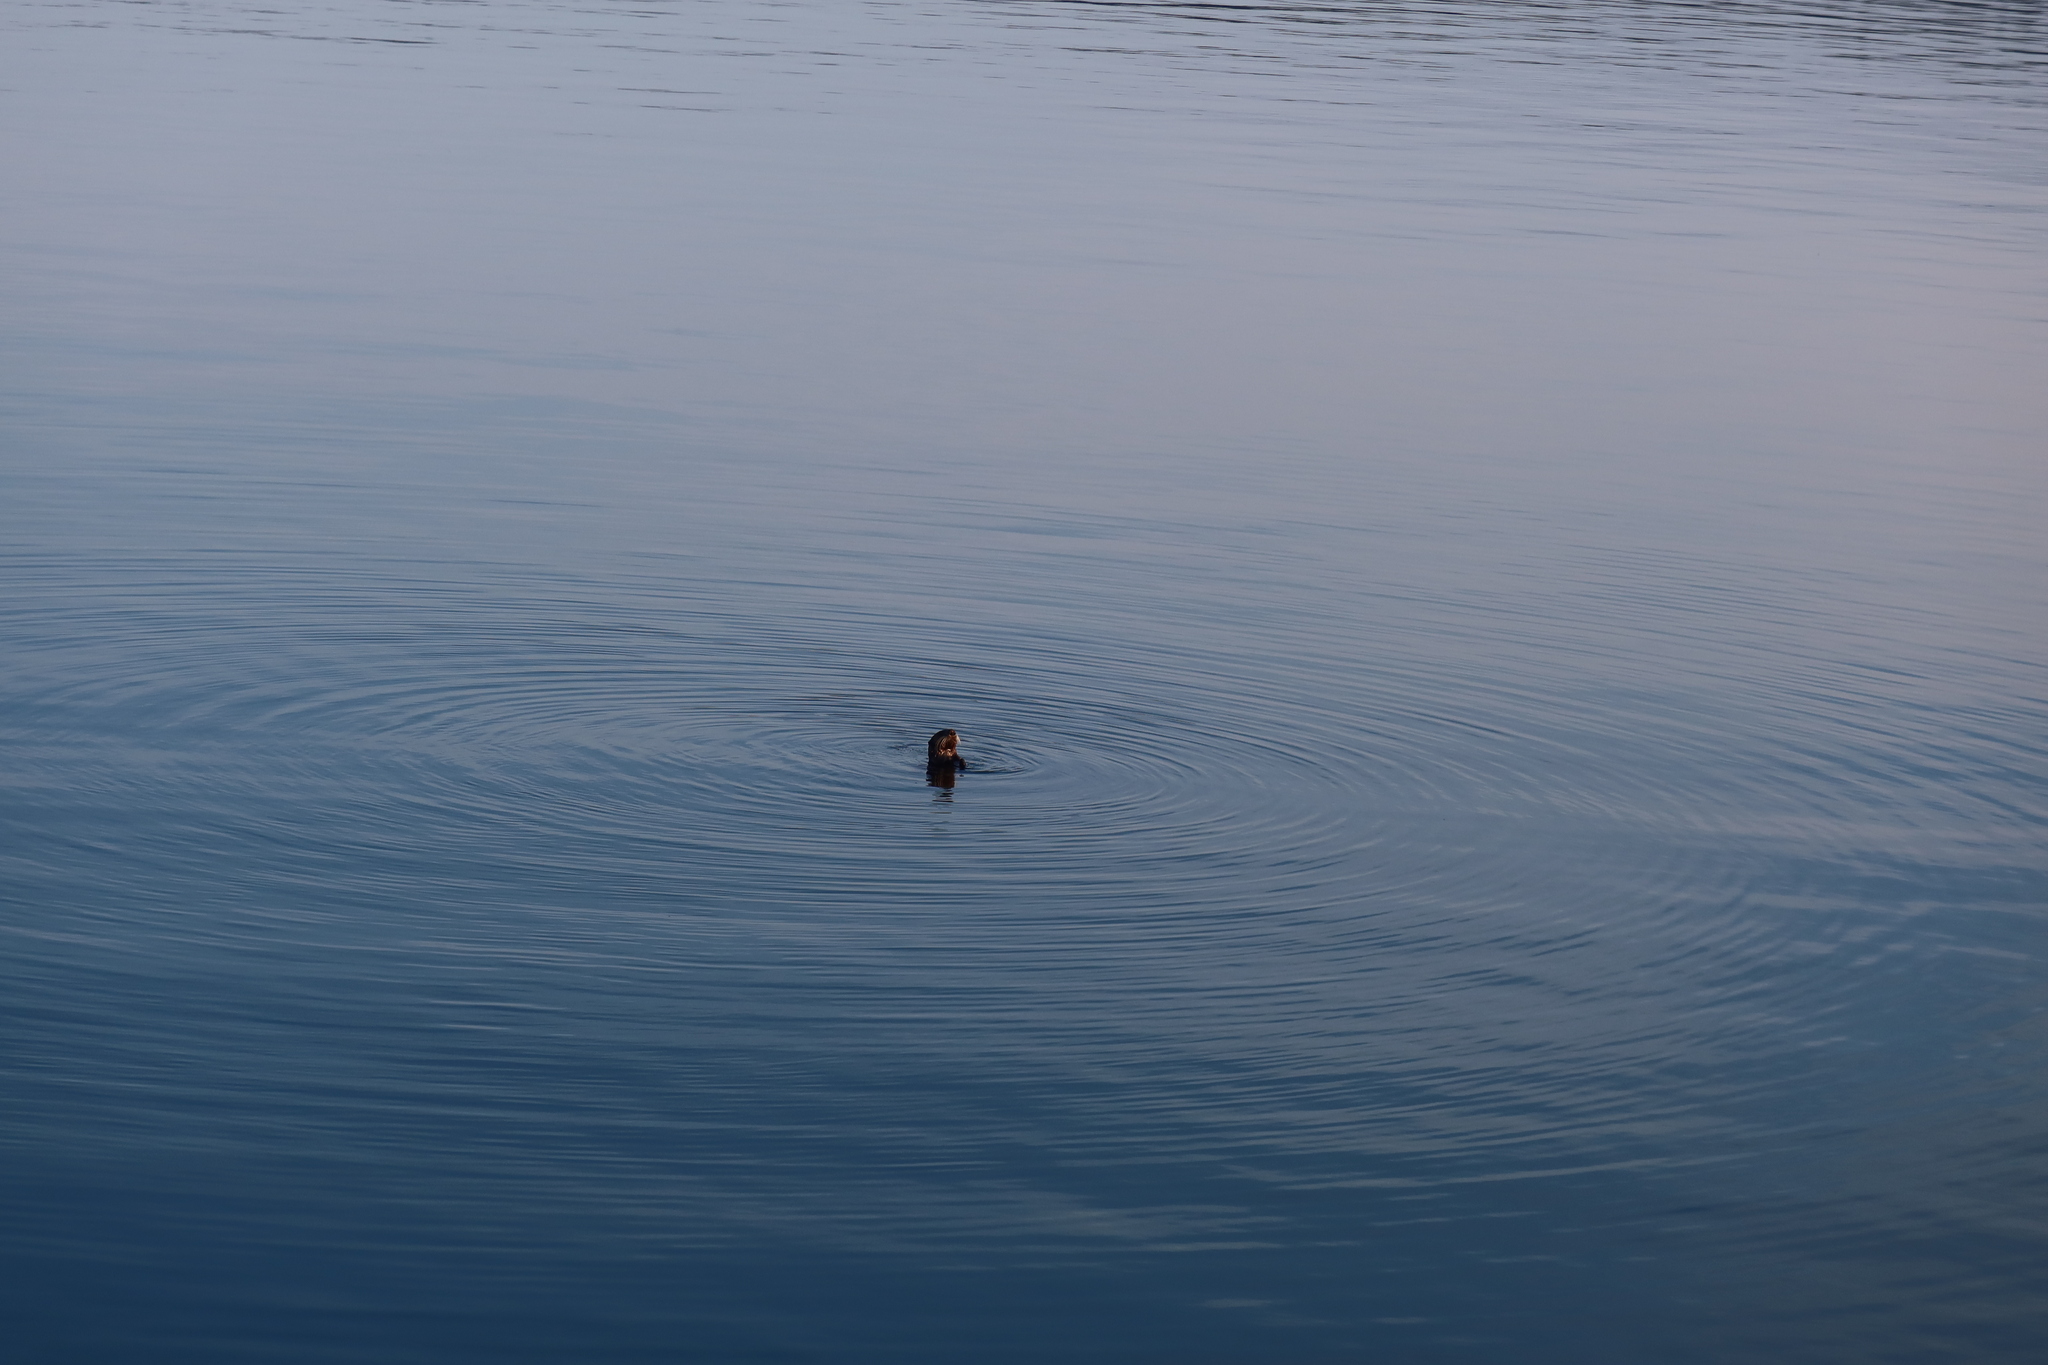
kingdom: Animalia
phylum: Chordata
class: Mammalia
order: Carnivora
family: Mustelidae
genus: Enhydra
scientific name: Enhydra lutris
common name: Sea otter
